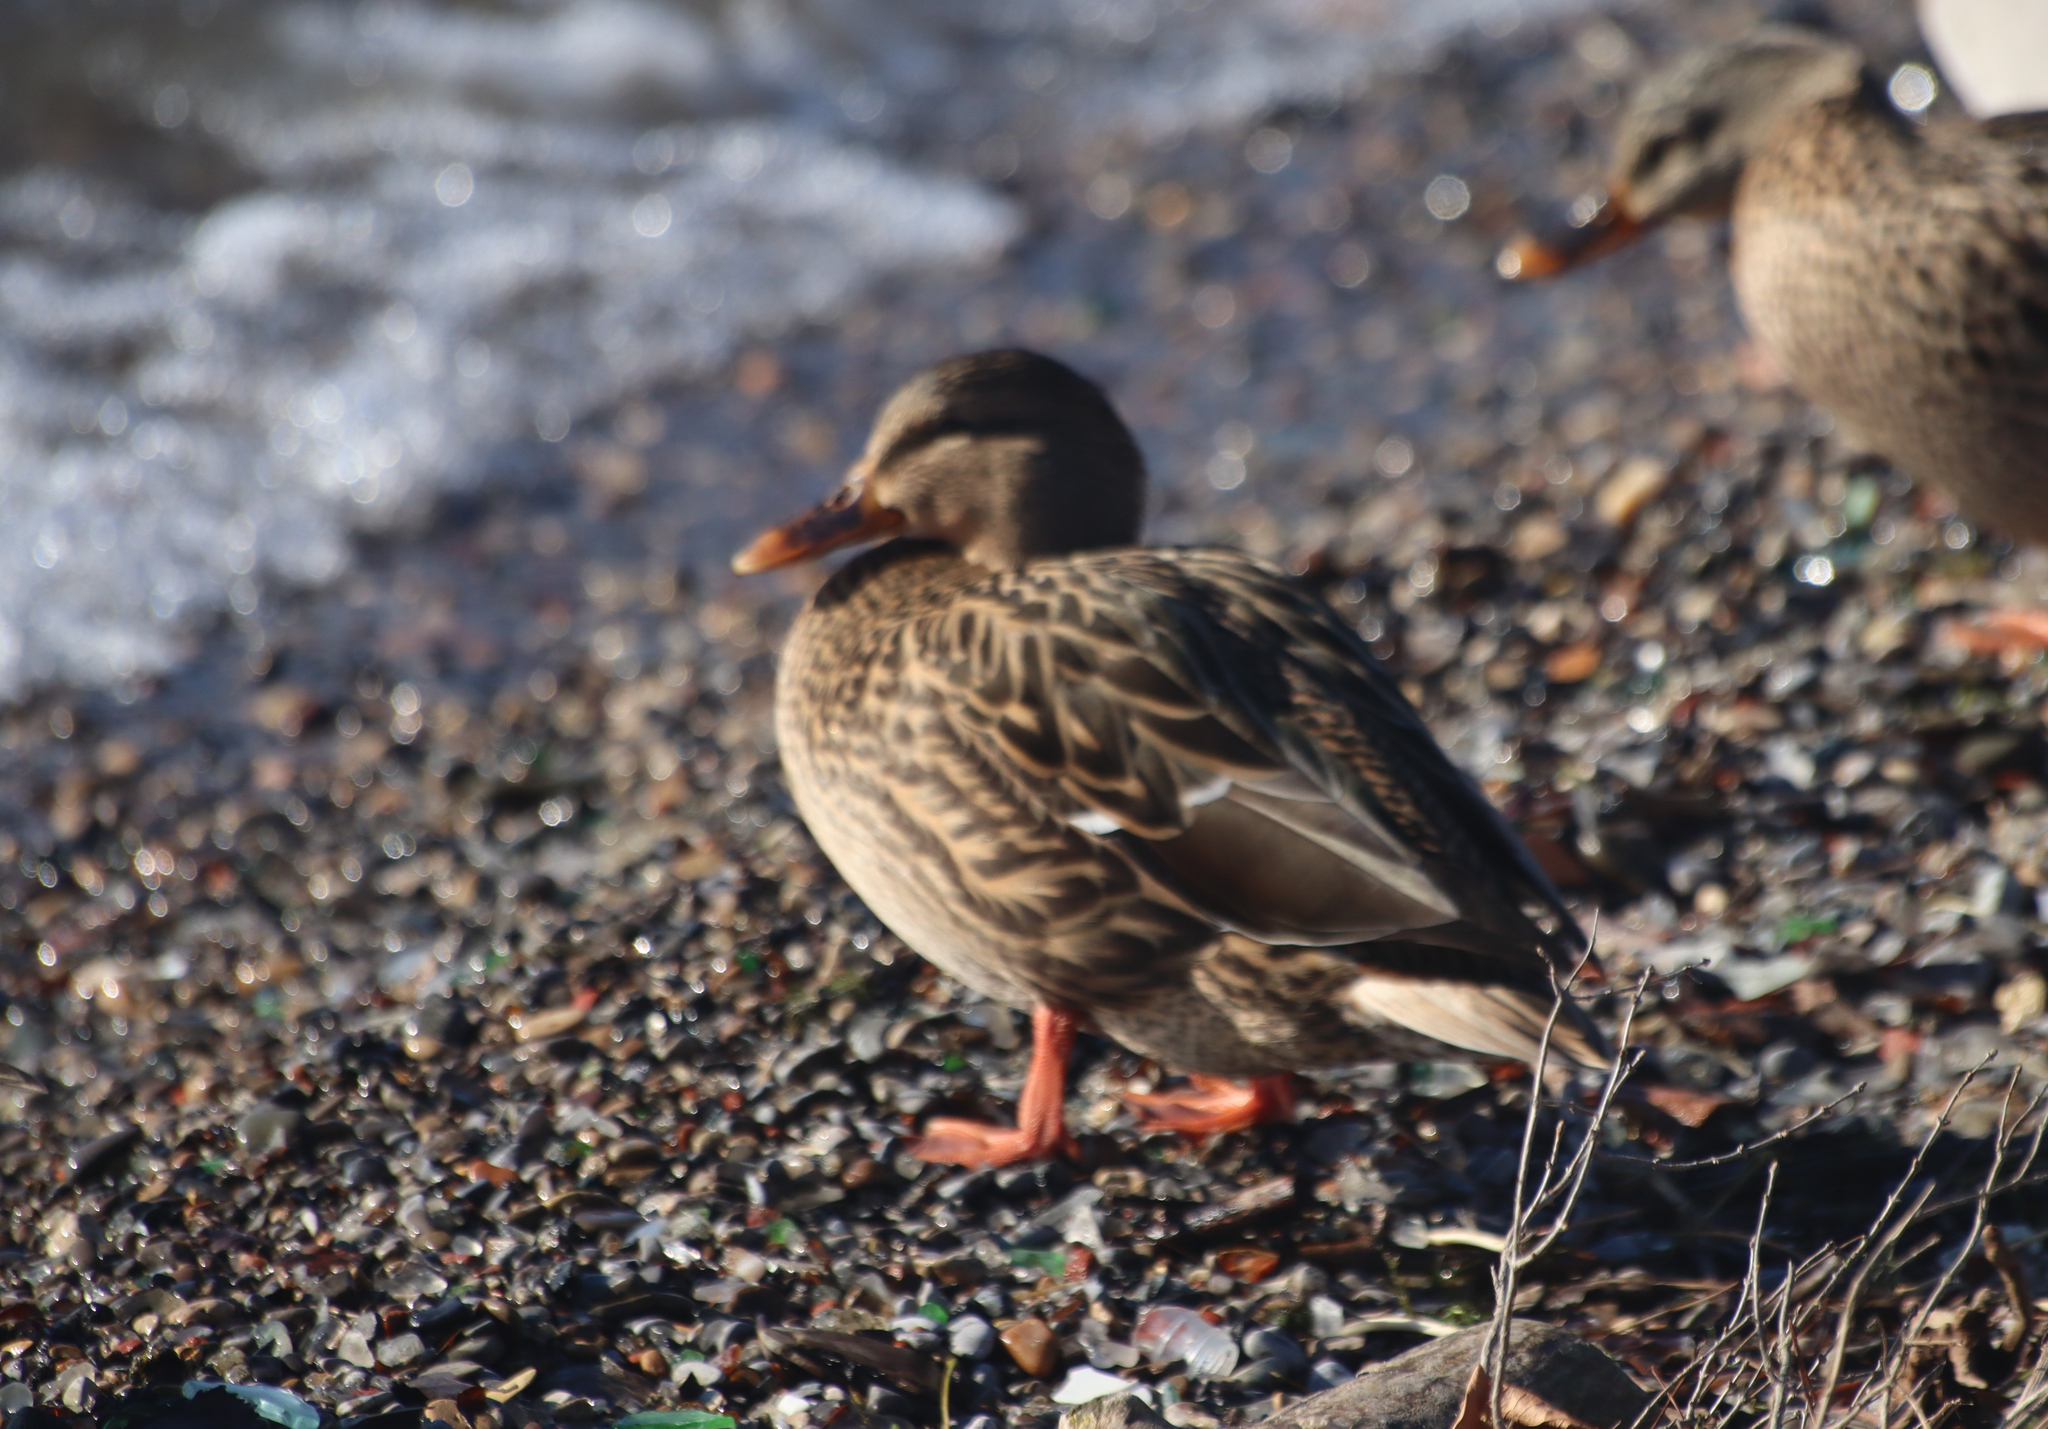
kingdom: Animalia
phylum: Chordata
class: Aves
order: Anseriformes
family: Anatidae
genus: Anas
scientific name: Anas platyrhynchos
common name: Mallard
